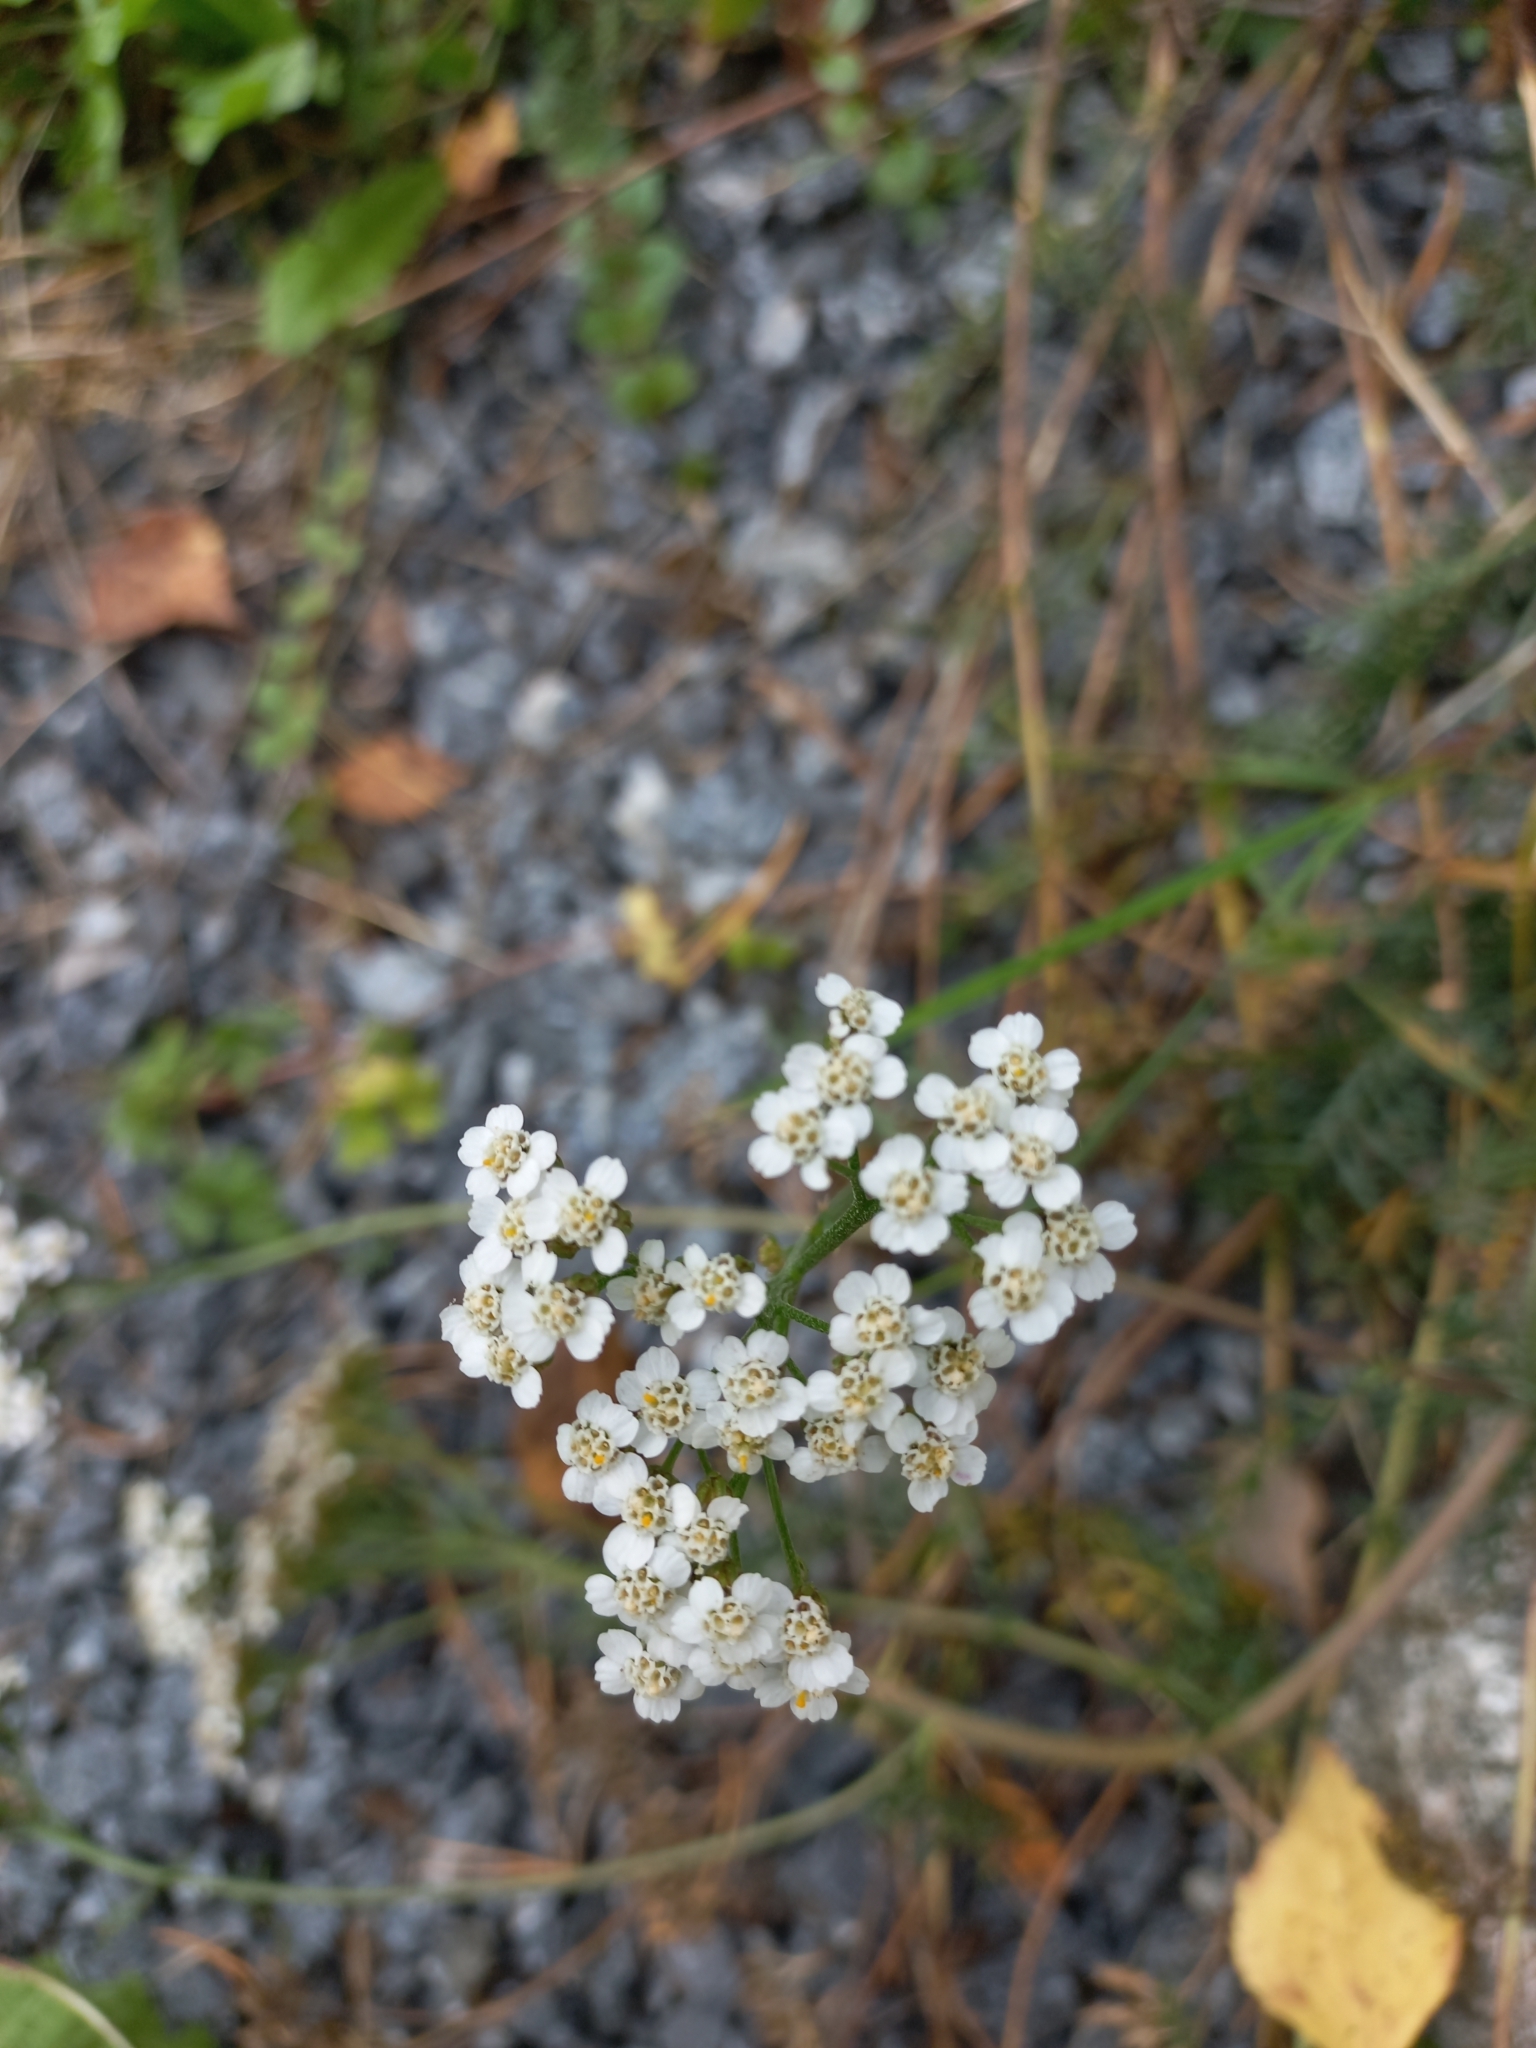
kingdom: Plantae
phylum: Tracheophyta
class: Magnoliopsida
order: Asterales
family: Asteraceae
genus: Achillea
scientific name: Achillea millefolium
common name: Yarrow
